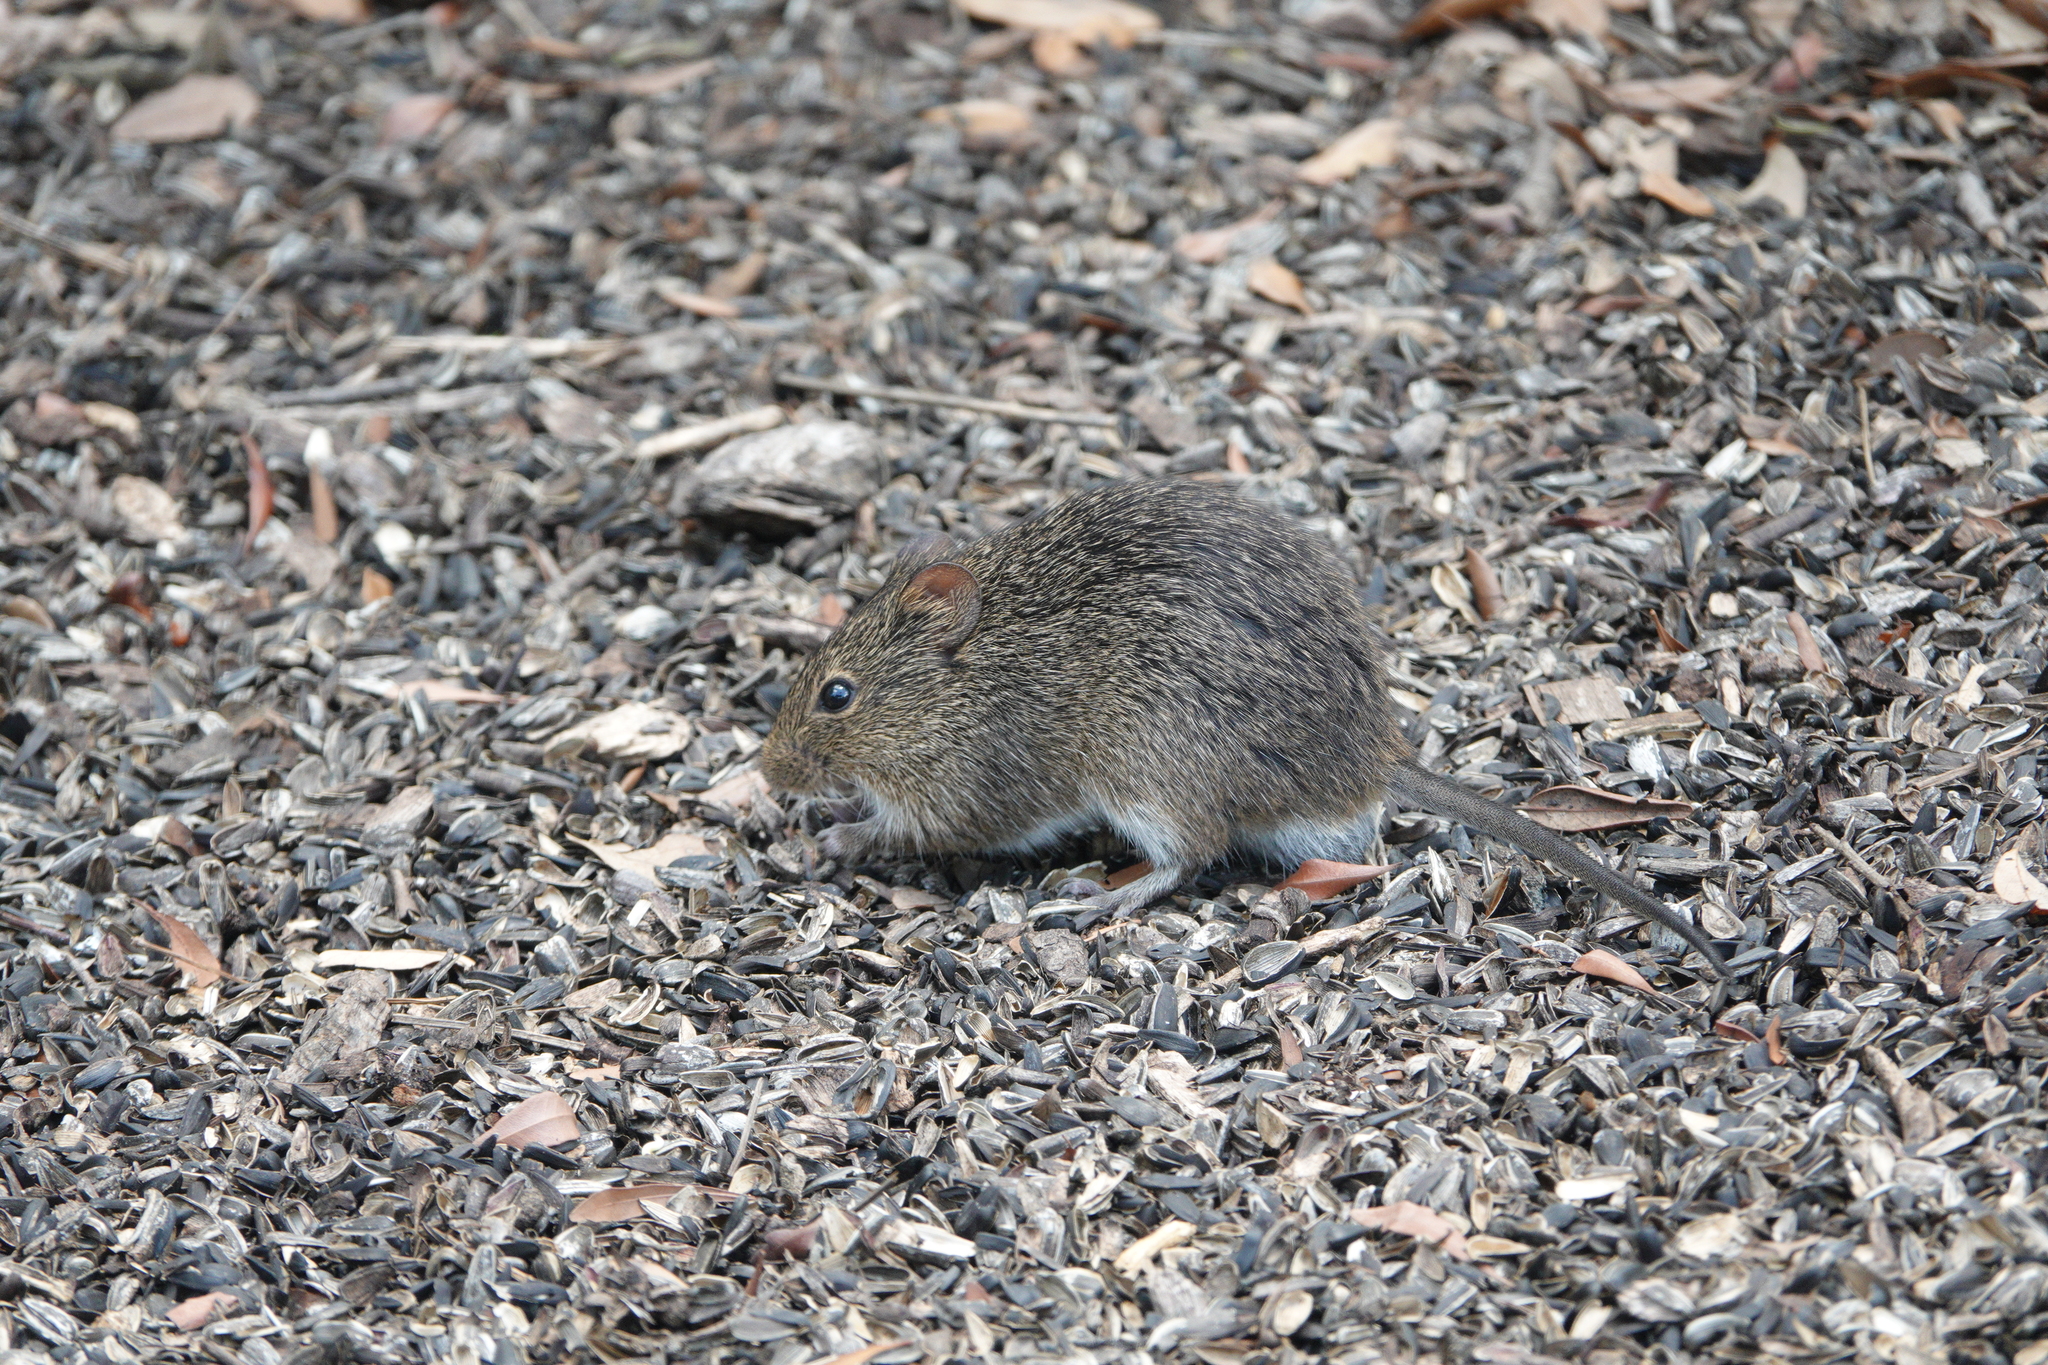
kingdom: Animalia
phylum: Chordata
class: Mammalia
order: Rodentia
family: Cricetidae
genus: Sigmodon
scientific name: Sigmodon hispidus
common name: Hispid cotton rat
